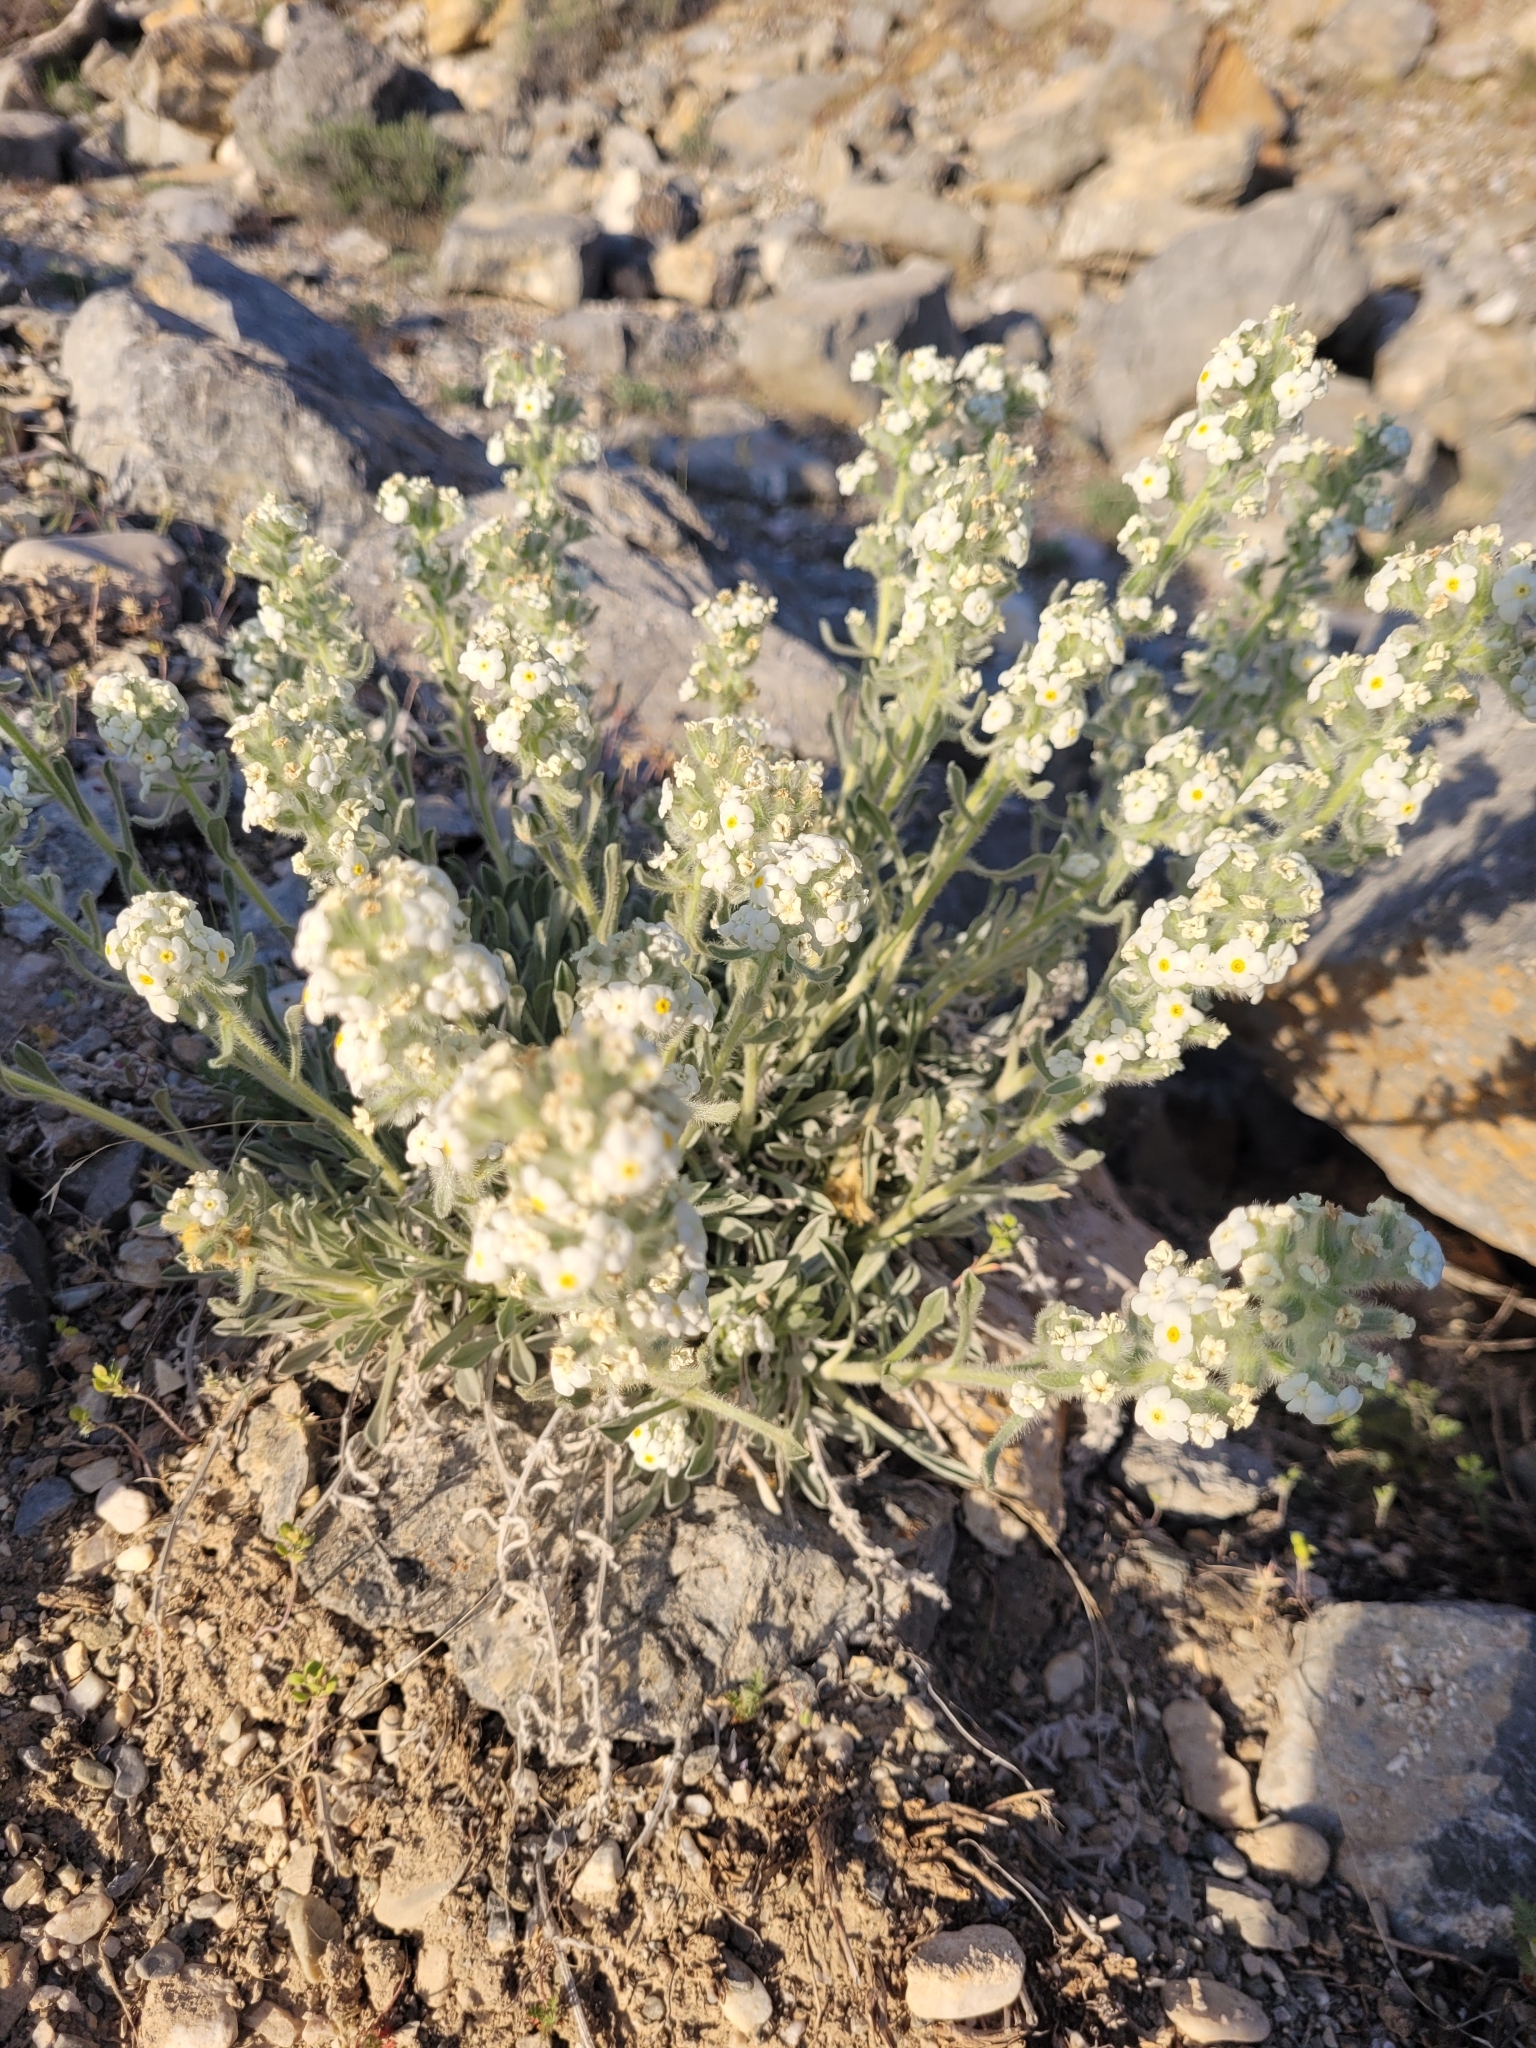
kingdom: Plantae
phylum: Tracheophyta
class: Magnoliopsida
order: Boraginales
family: Boraginaceae
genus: Oreocarya
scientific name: Oreocarya humilis
